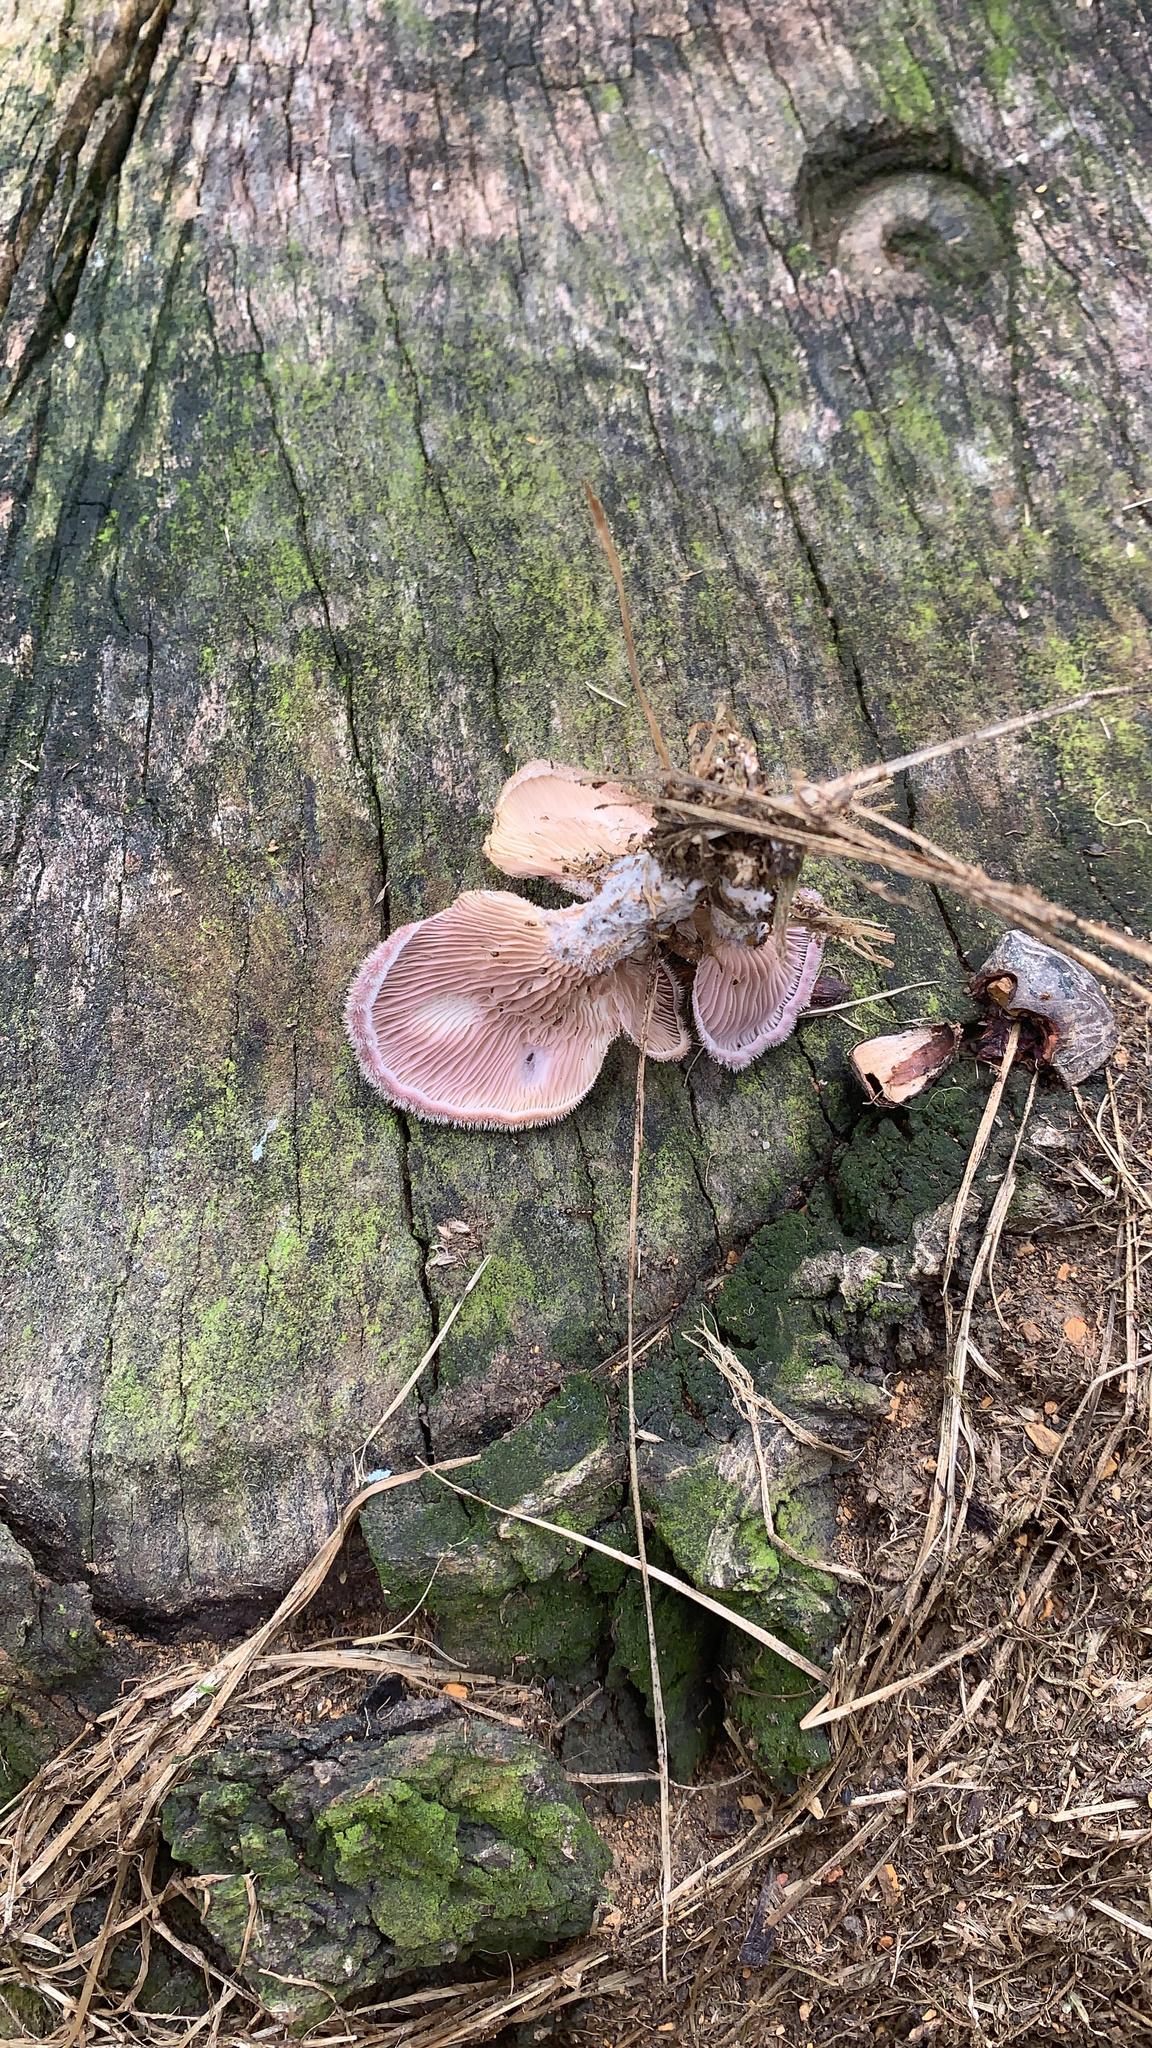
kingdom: Fungi
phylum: Basidiomycota
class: Agaricomycetes
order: Polyporales
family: Panaceae
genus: Panus
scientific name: Panus neostrigosus
